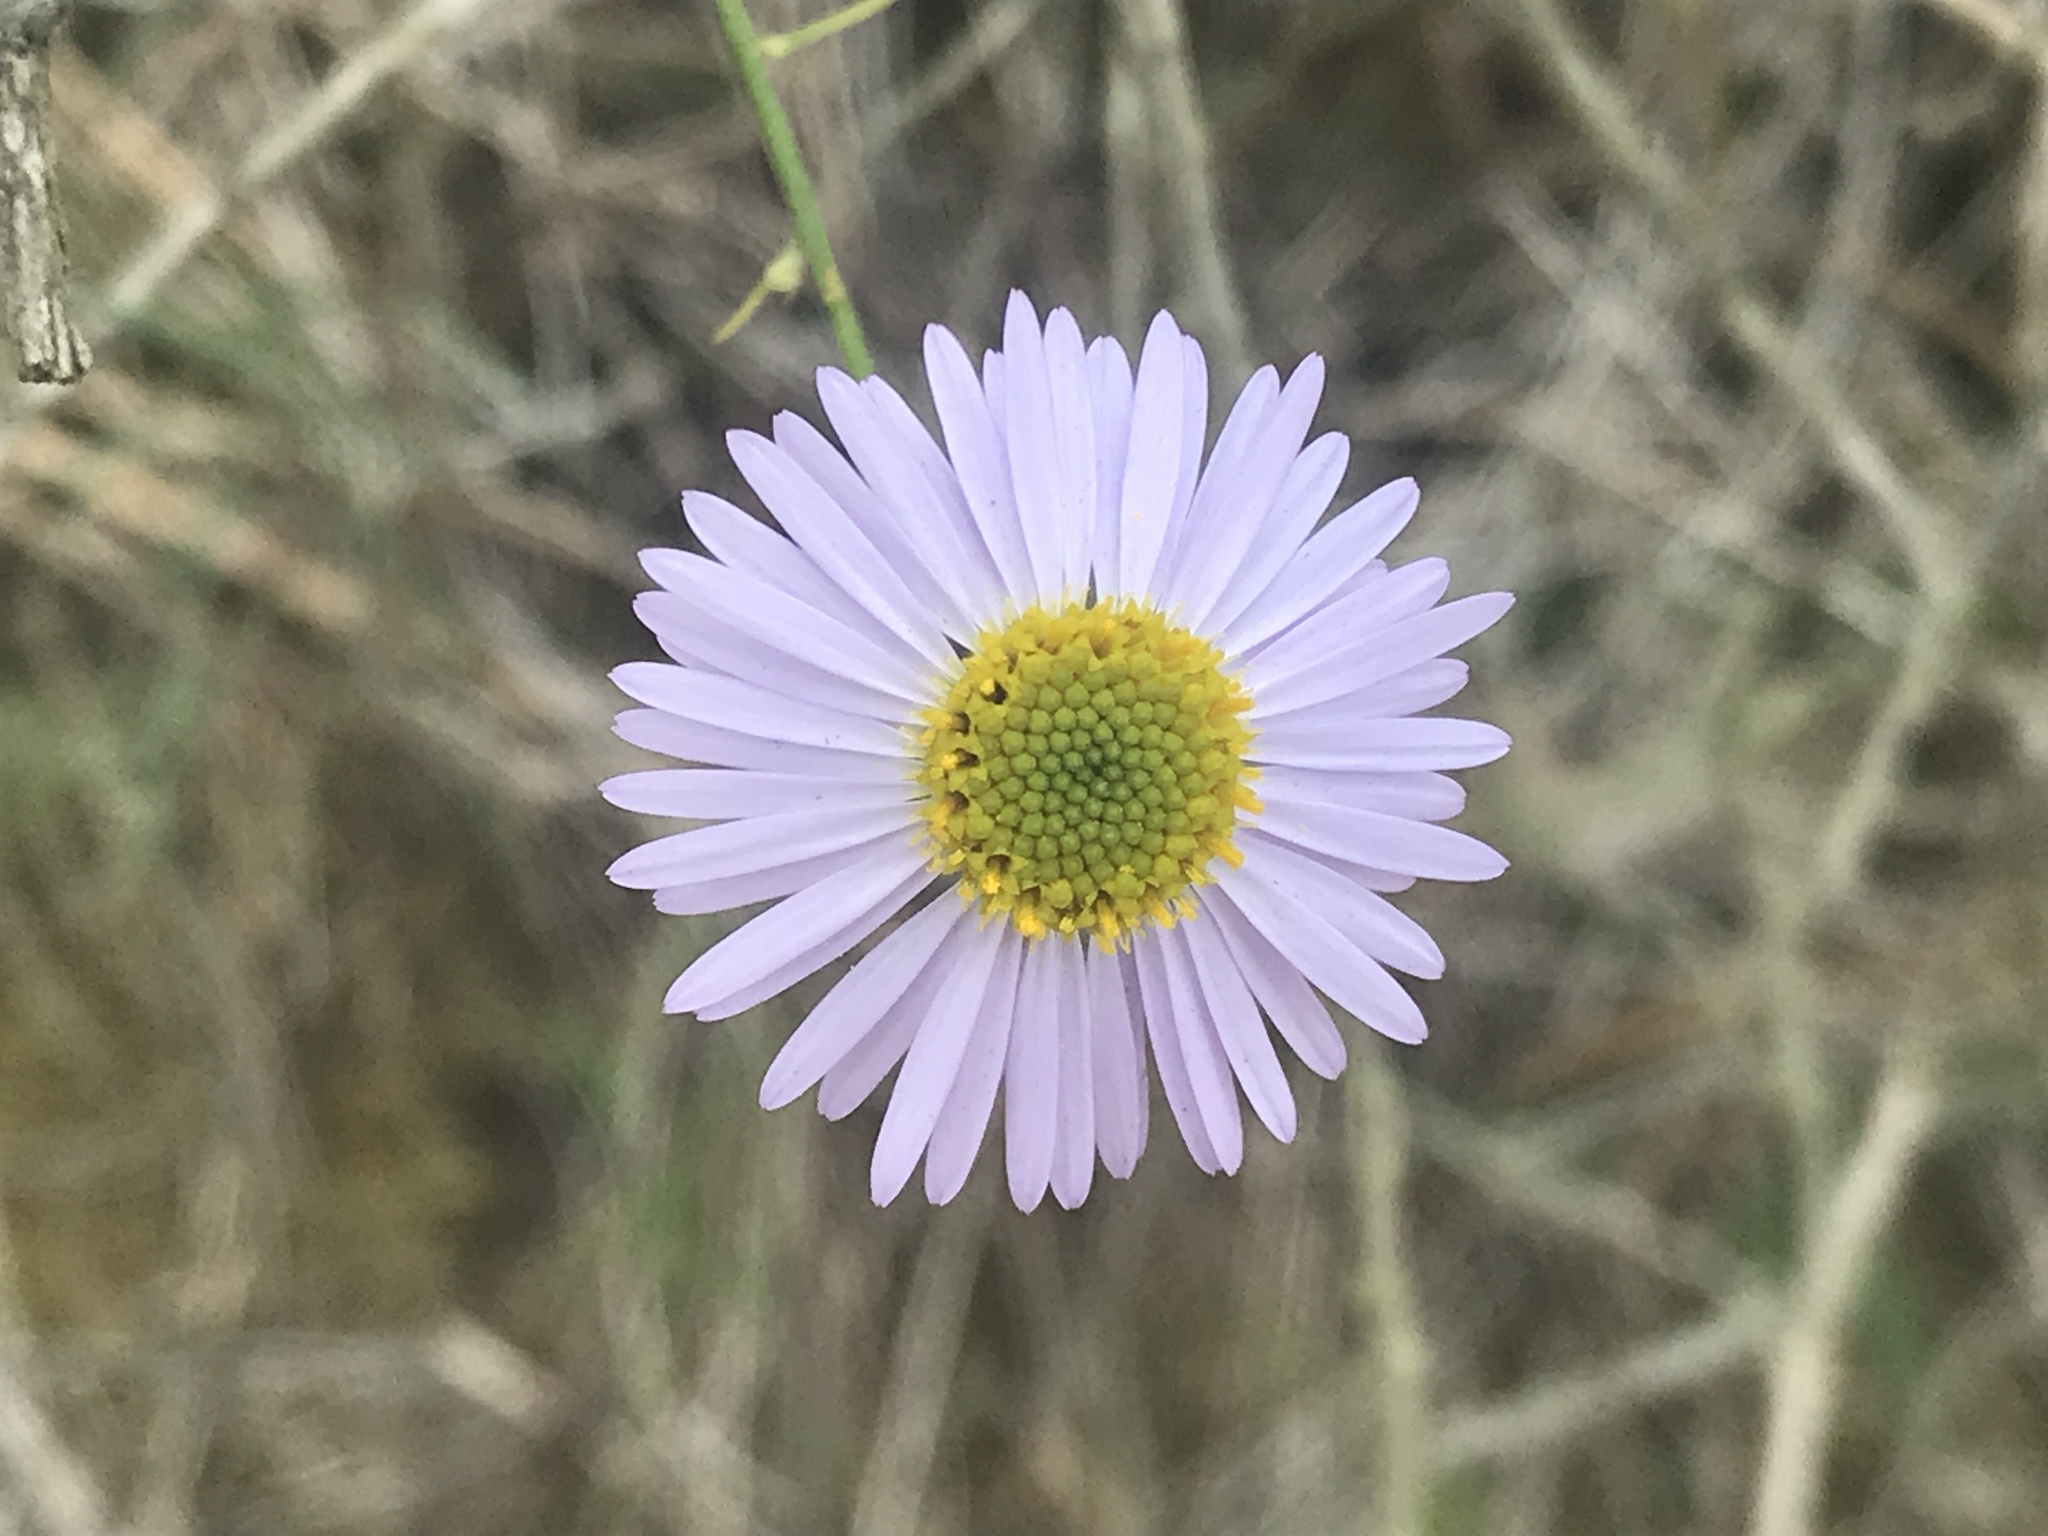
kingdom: Plantae
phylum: Tracheophyta
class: Magnoliopsida
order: Asterales
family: Asteraceae
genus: Erigeron
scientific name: Erigeron foliosus
